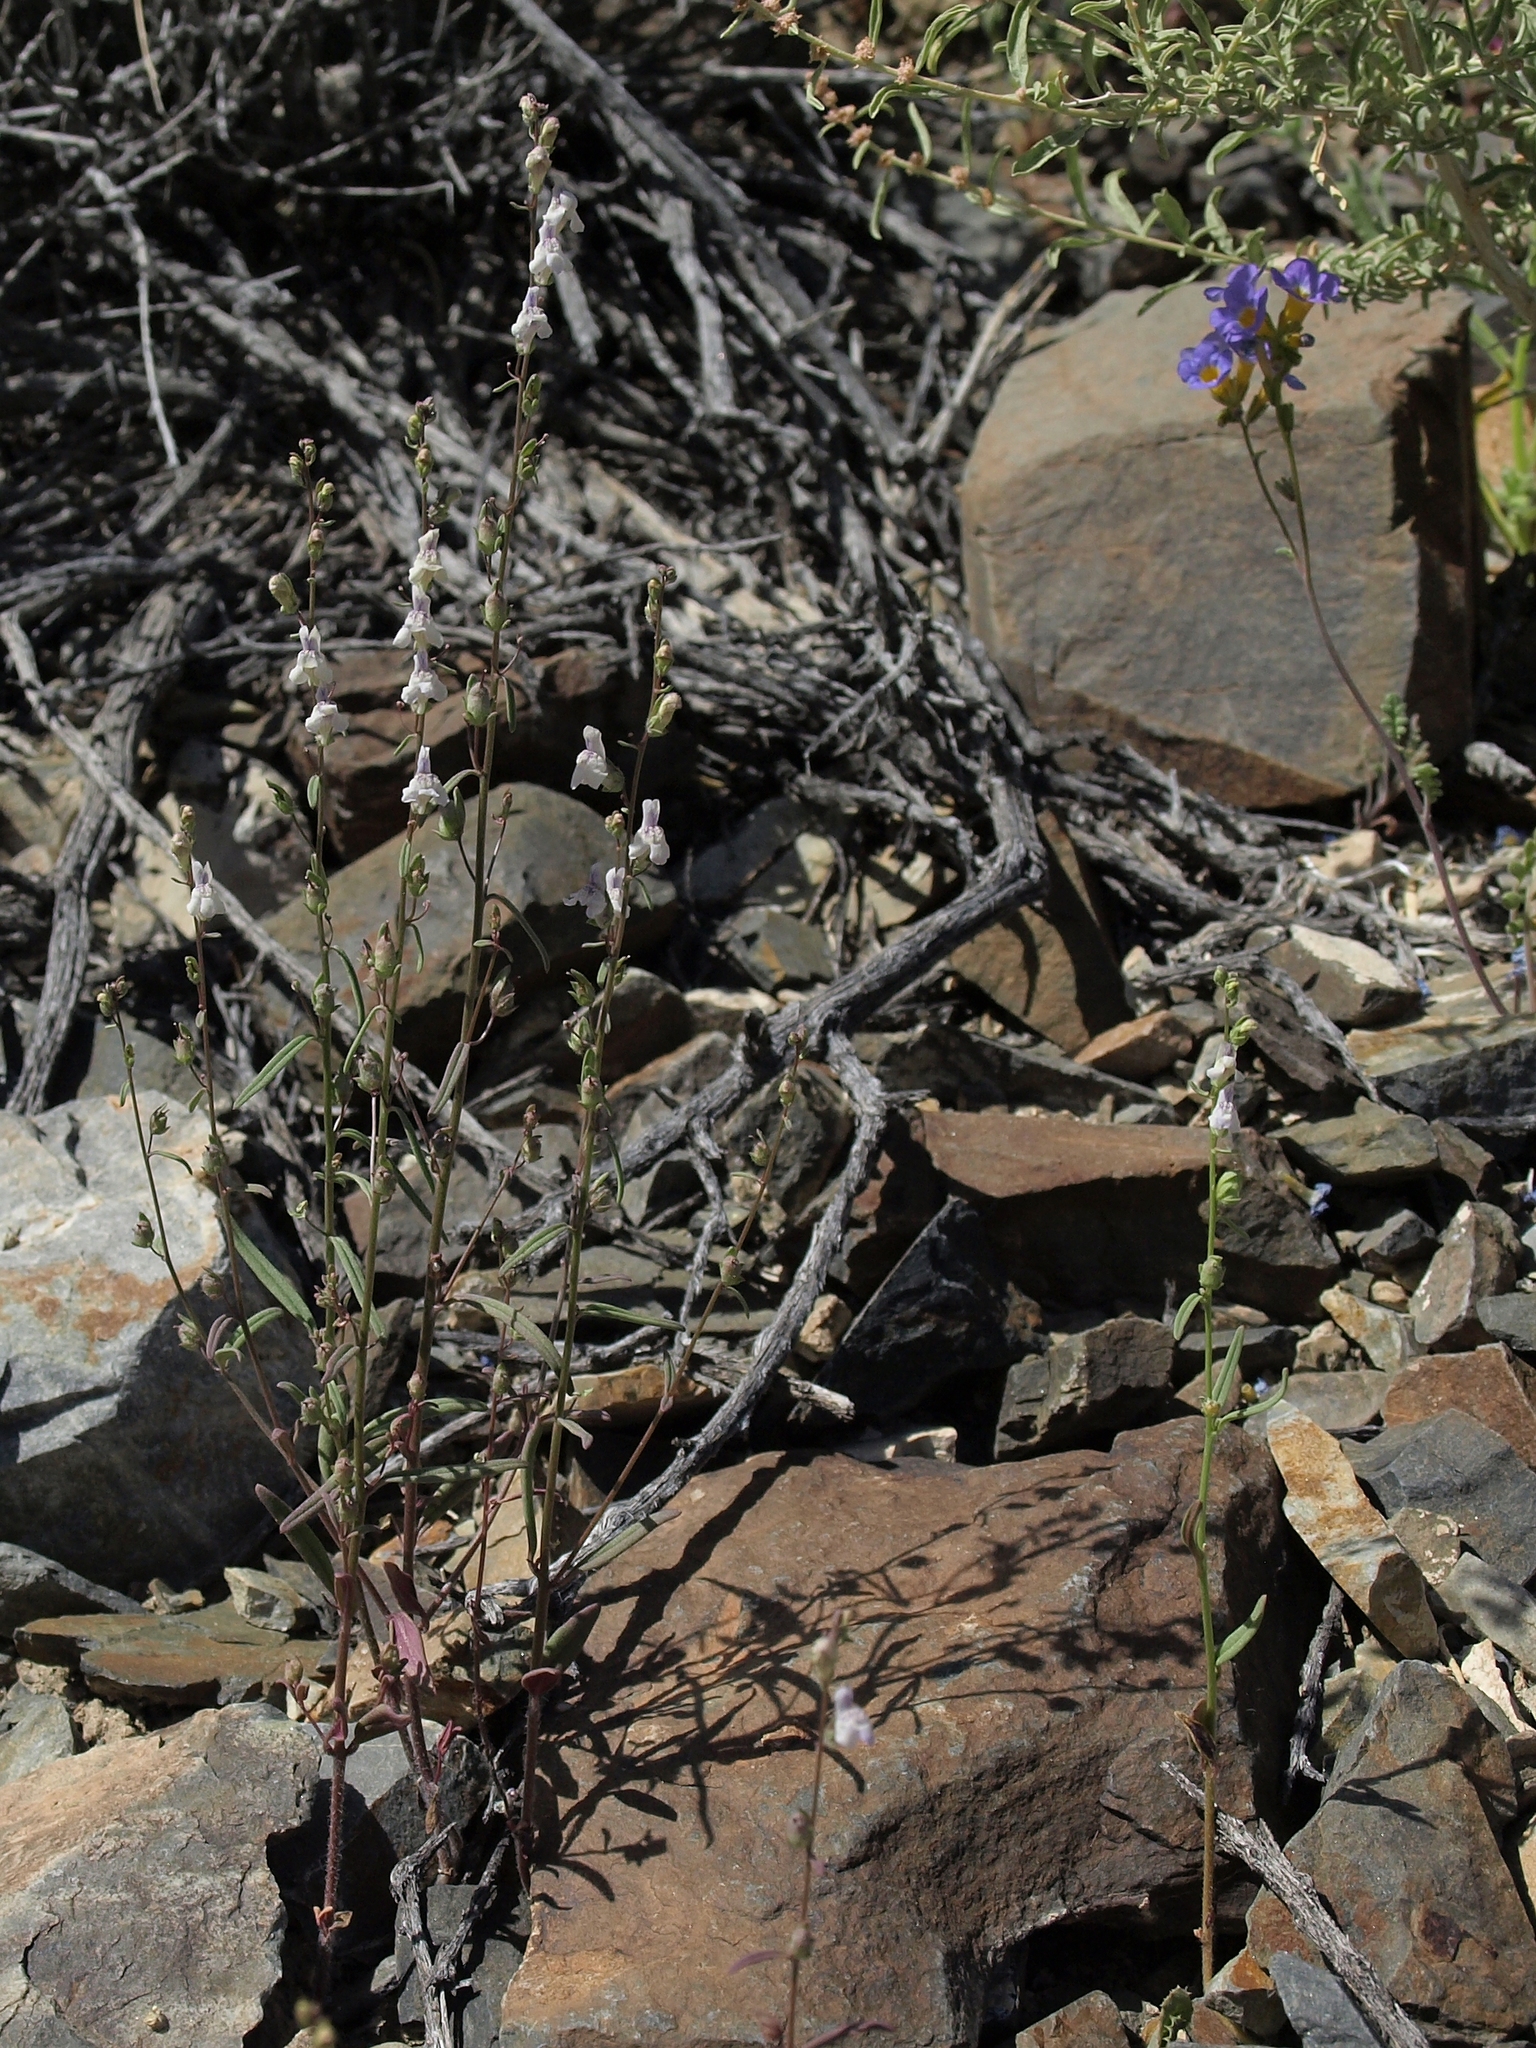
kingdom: Plantae
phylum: Tracheophyta
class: Magnoliopsida
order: Lamiales
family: Plantaginaceae
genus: Sairocarpus
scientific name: Sairocarpus kingii
